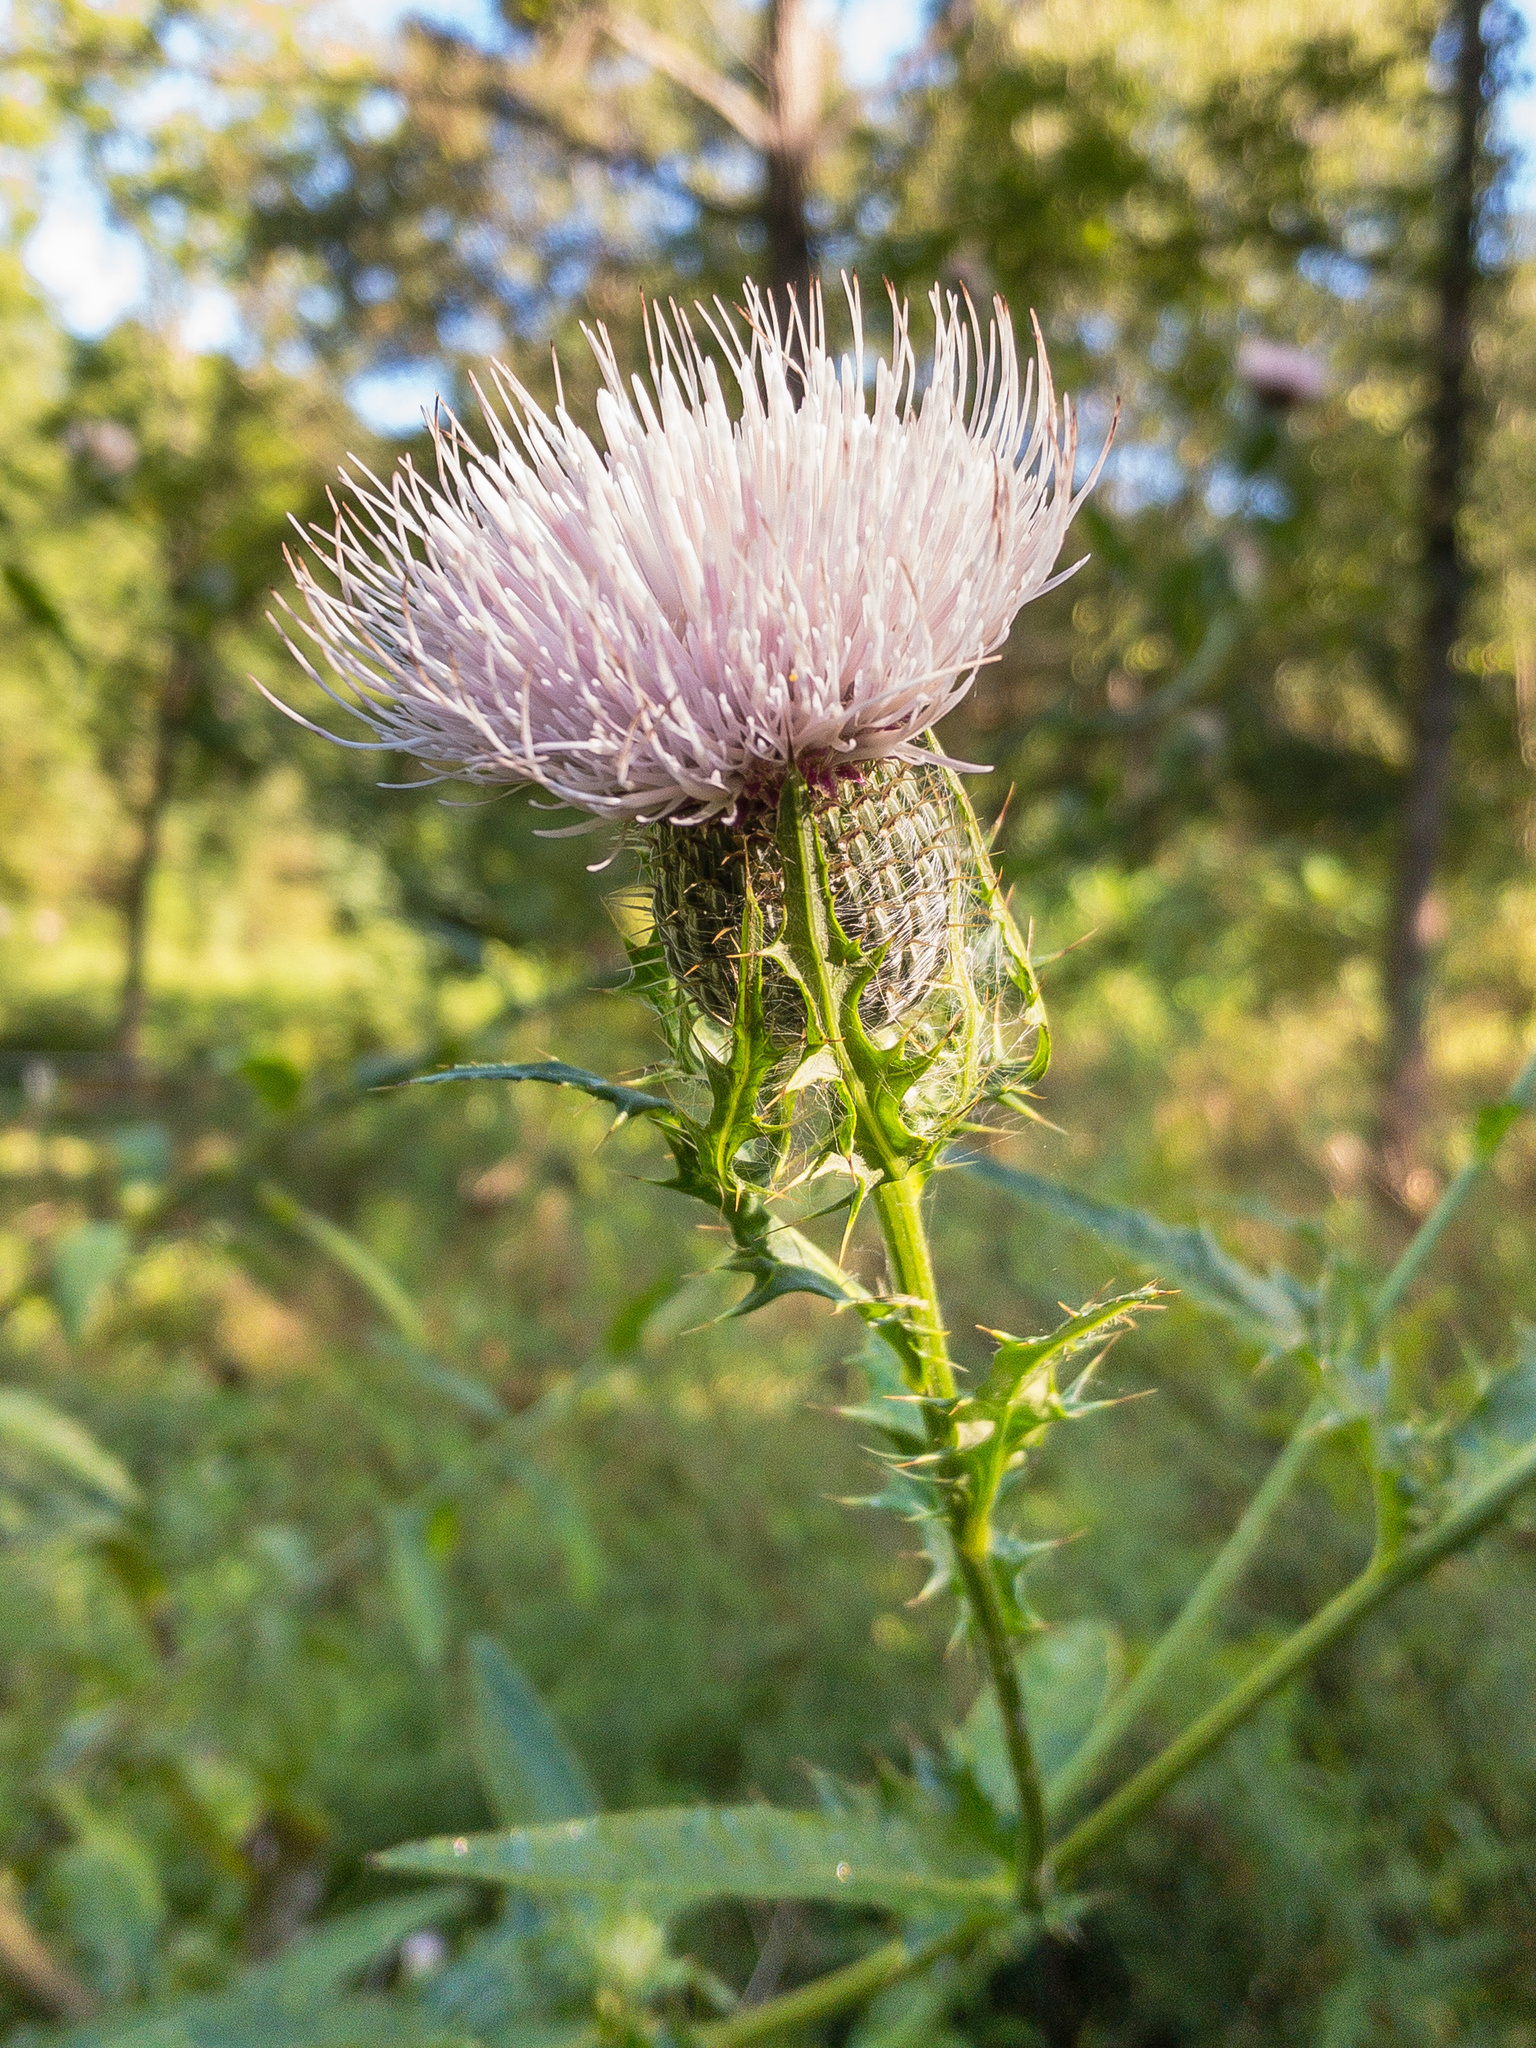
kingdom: Plantae
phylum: Tracheophyta
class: Magnoliopsida
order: Asterales
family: Asteraceae
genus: Cirsium
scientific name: Cirsium altissimum
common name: Roadside thistle
